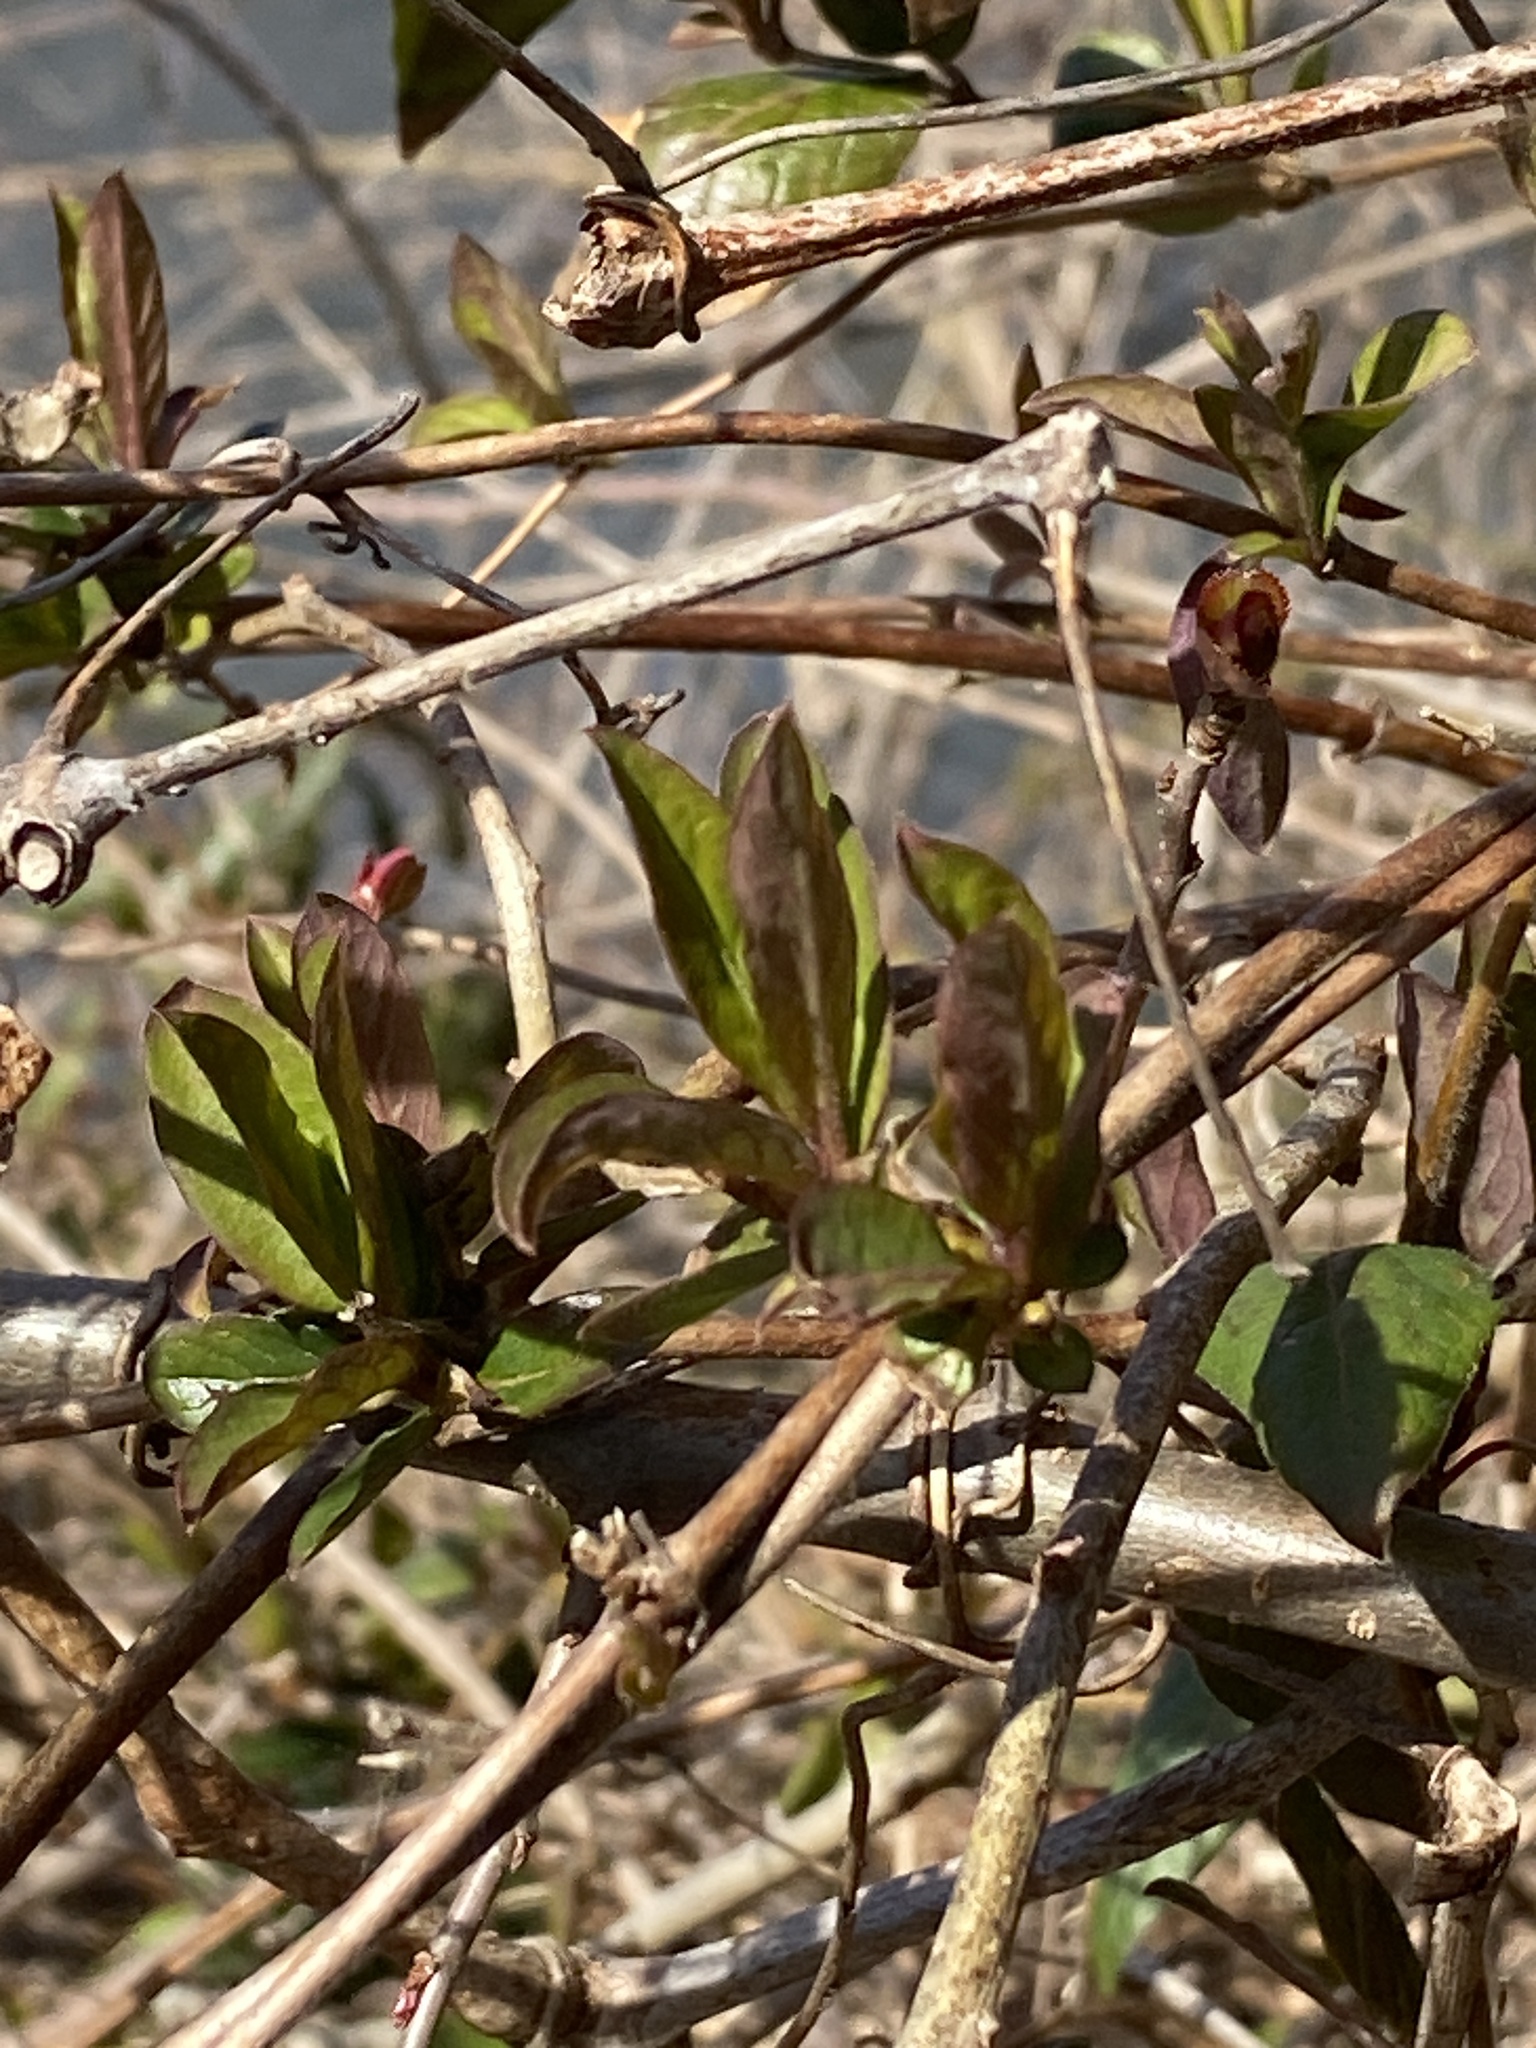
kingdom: Plantae
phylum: Tracheophyta
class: Magnoliopsida
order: Dipsacales
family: Caprifoliaceae
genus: Lonicera
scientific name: Lonicera japonica
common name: Japanese honeysuckle
